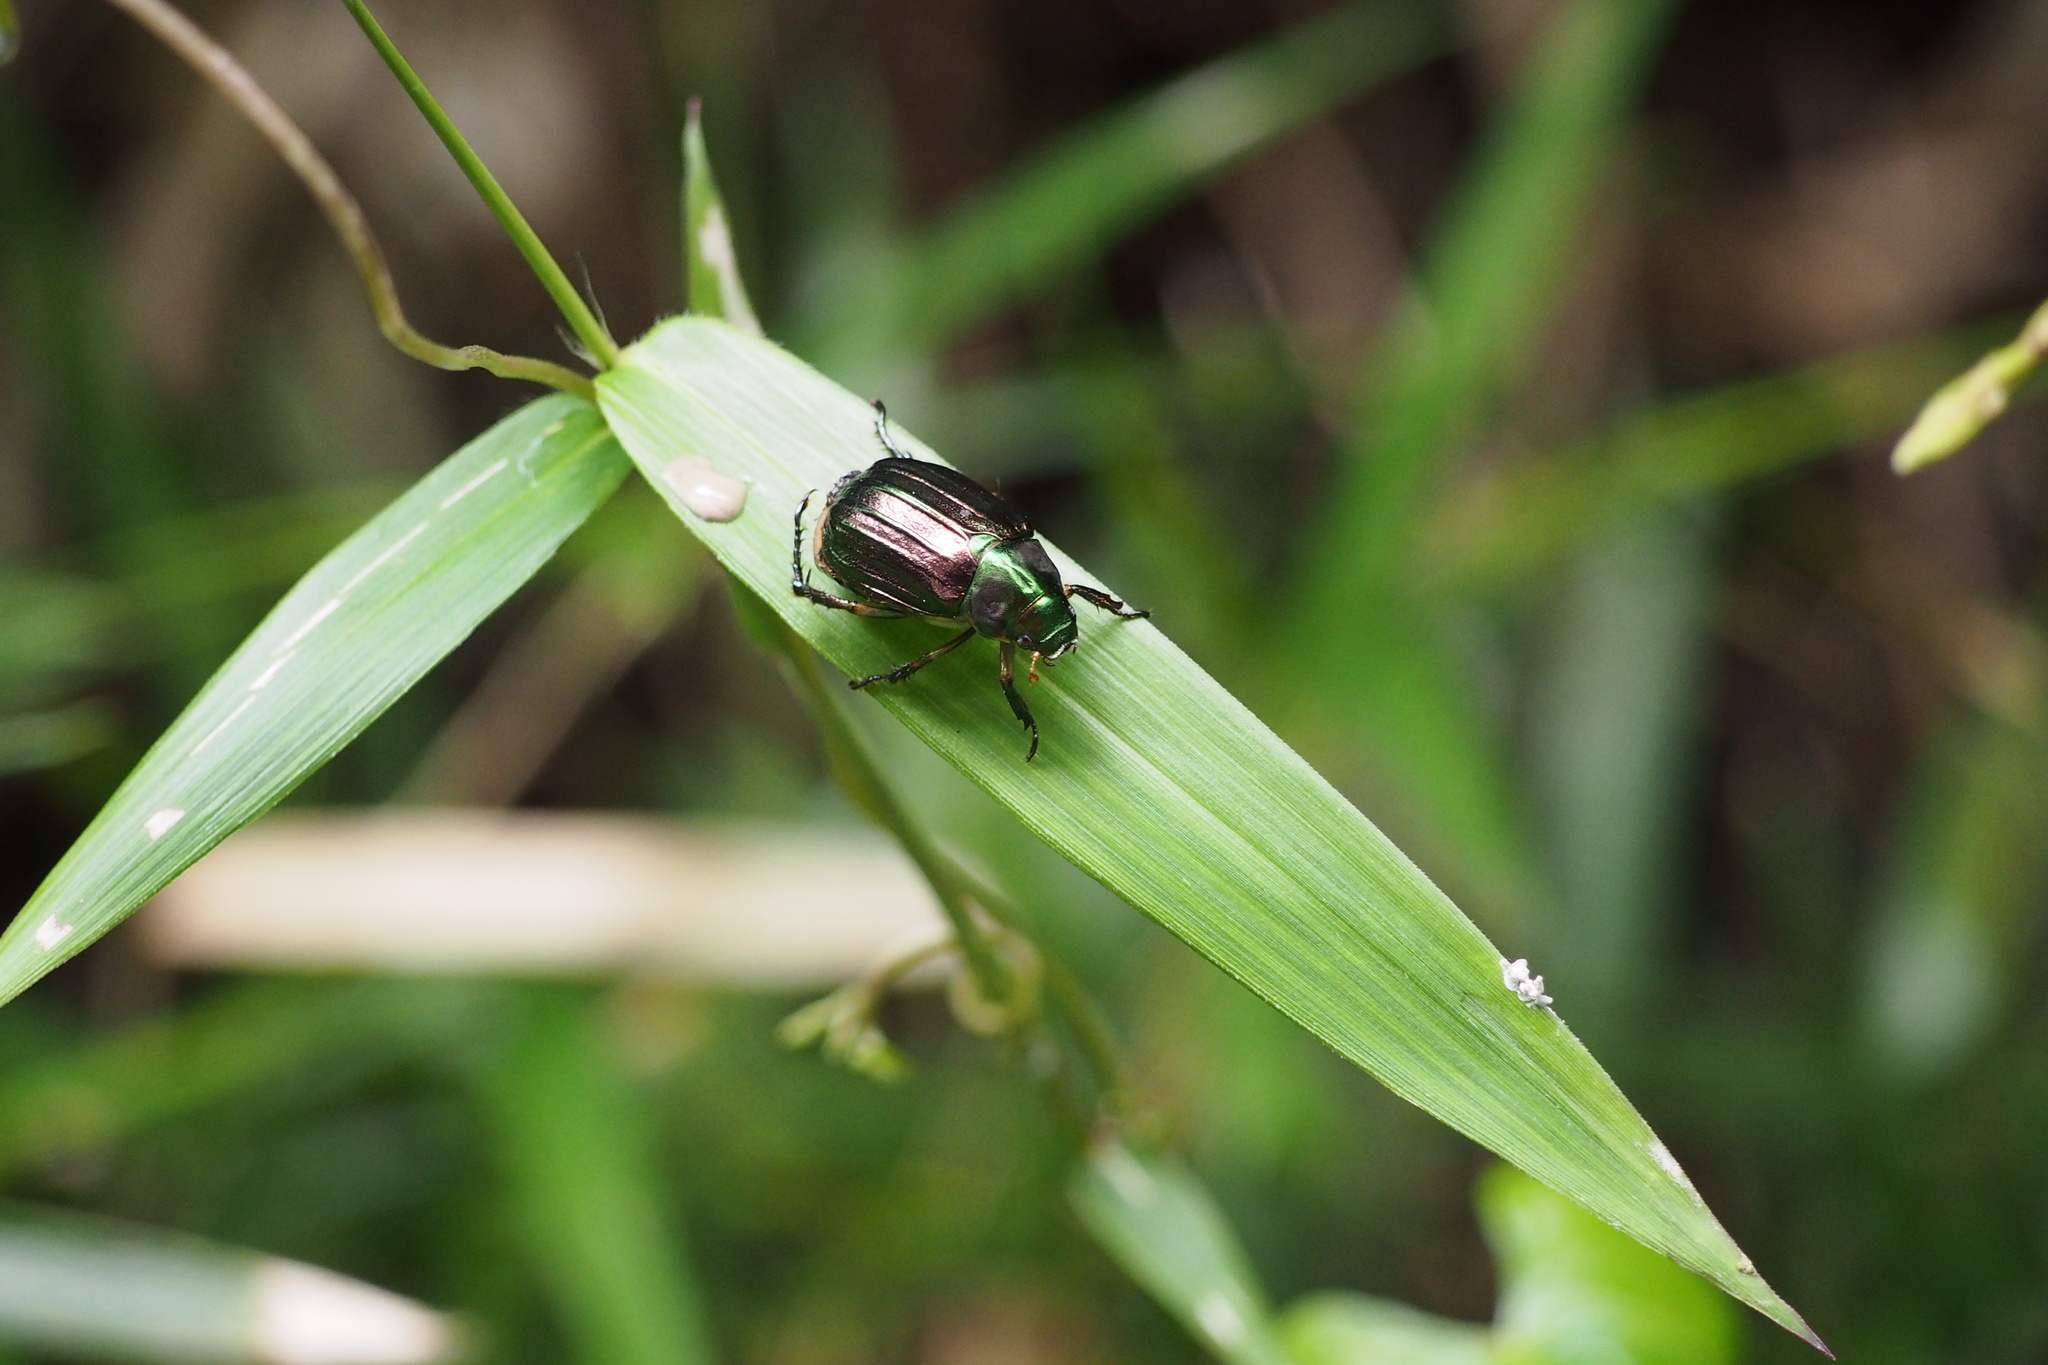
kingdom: Animalia
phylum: Arthropoda
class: Insecta
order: Coleoptera
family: Scarabaeidae
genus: Mimela
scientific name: Mimela costata
